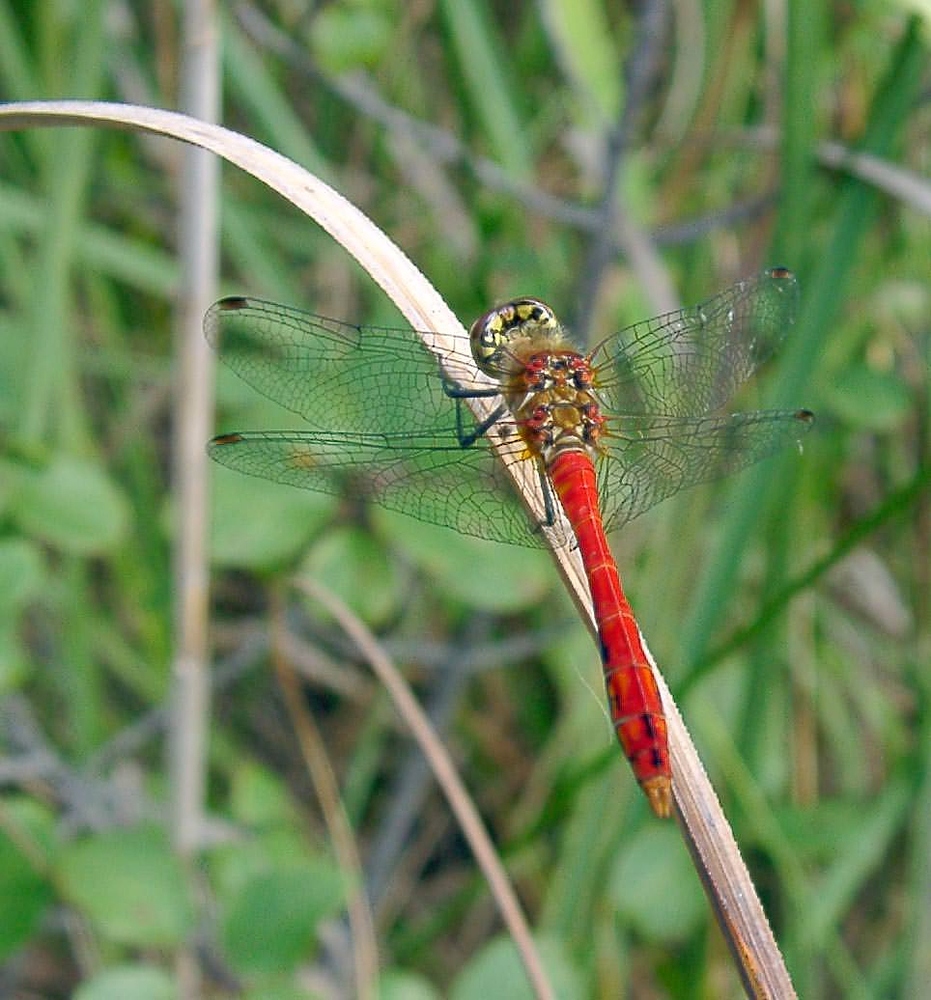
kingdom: Animalia
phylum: Arthropoda
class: Insecta
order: Odonata
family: Libellulidae
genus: Sympetrum
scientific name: Sympetrum sanguineum
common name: Ruddy darter
